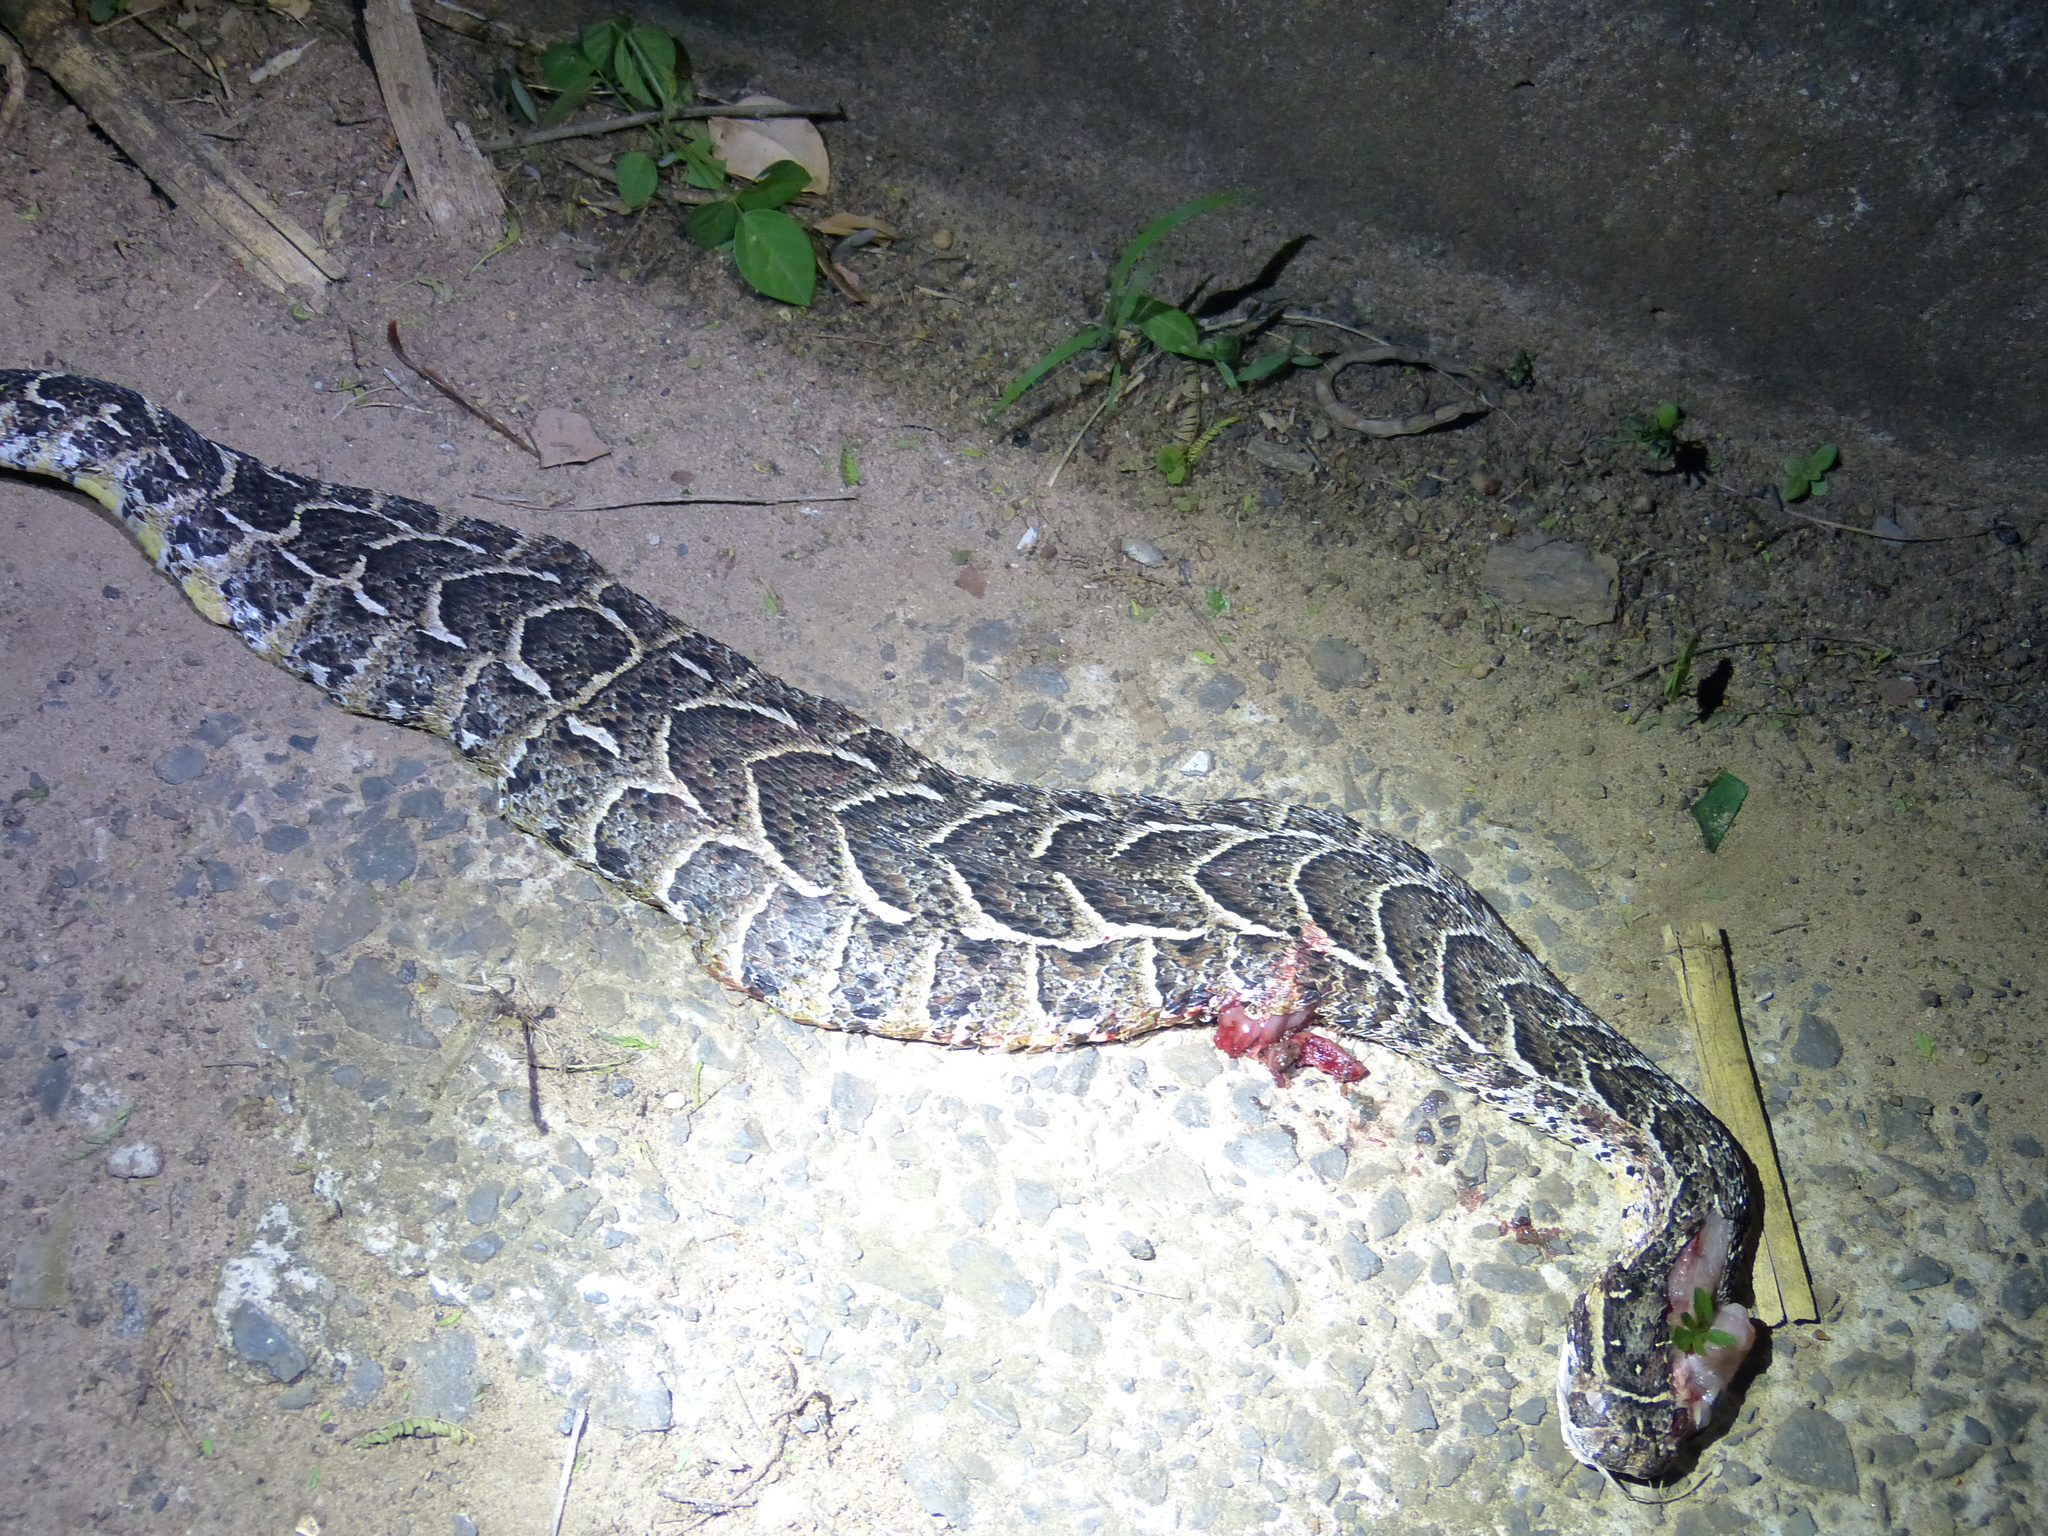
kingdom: Animalia
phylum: Chordata
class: Squamata
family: Viperidae
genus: Bitis
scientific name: Bitis arietans
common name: Puff adder
